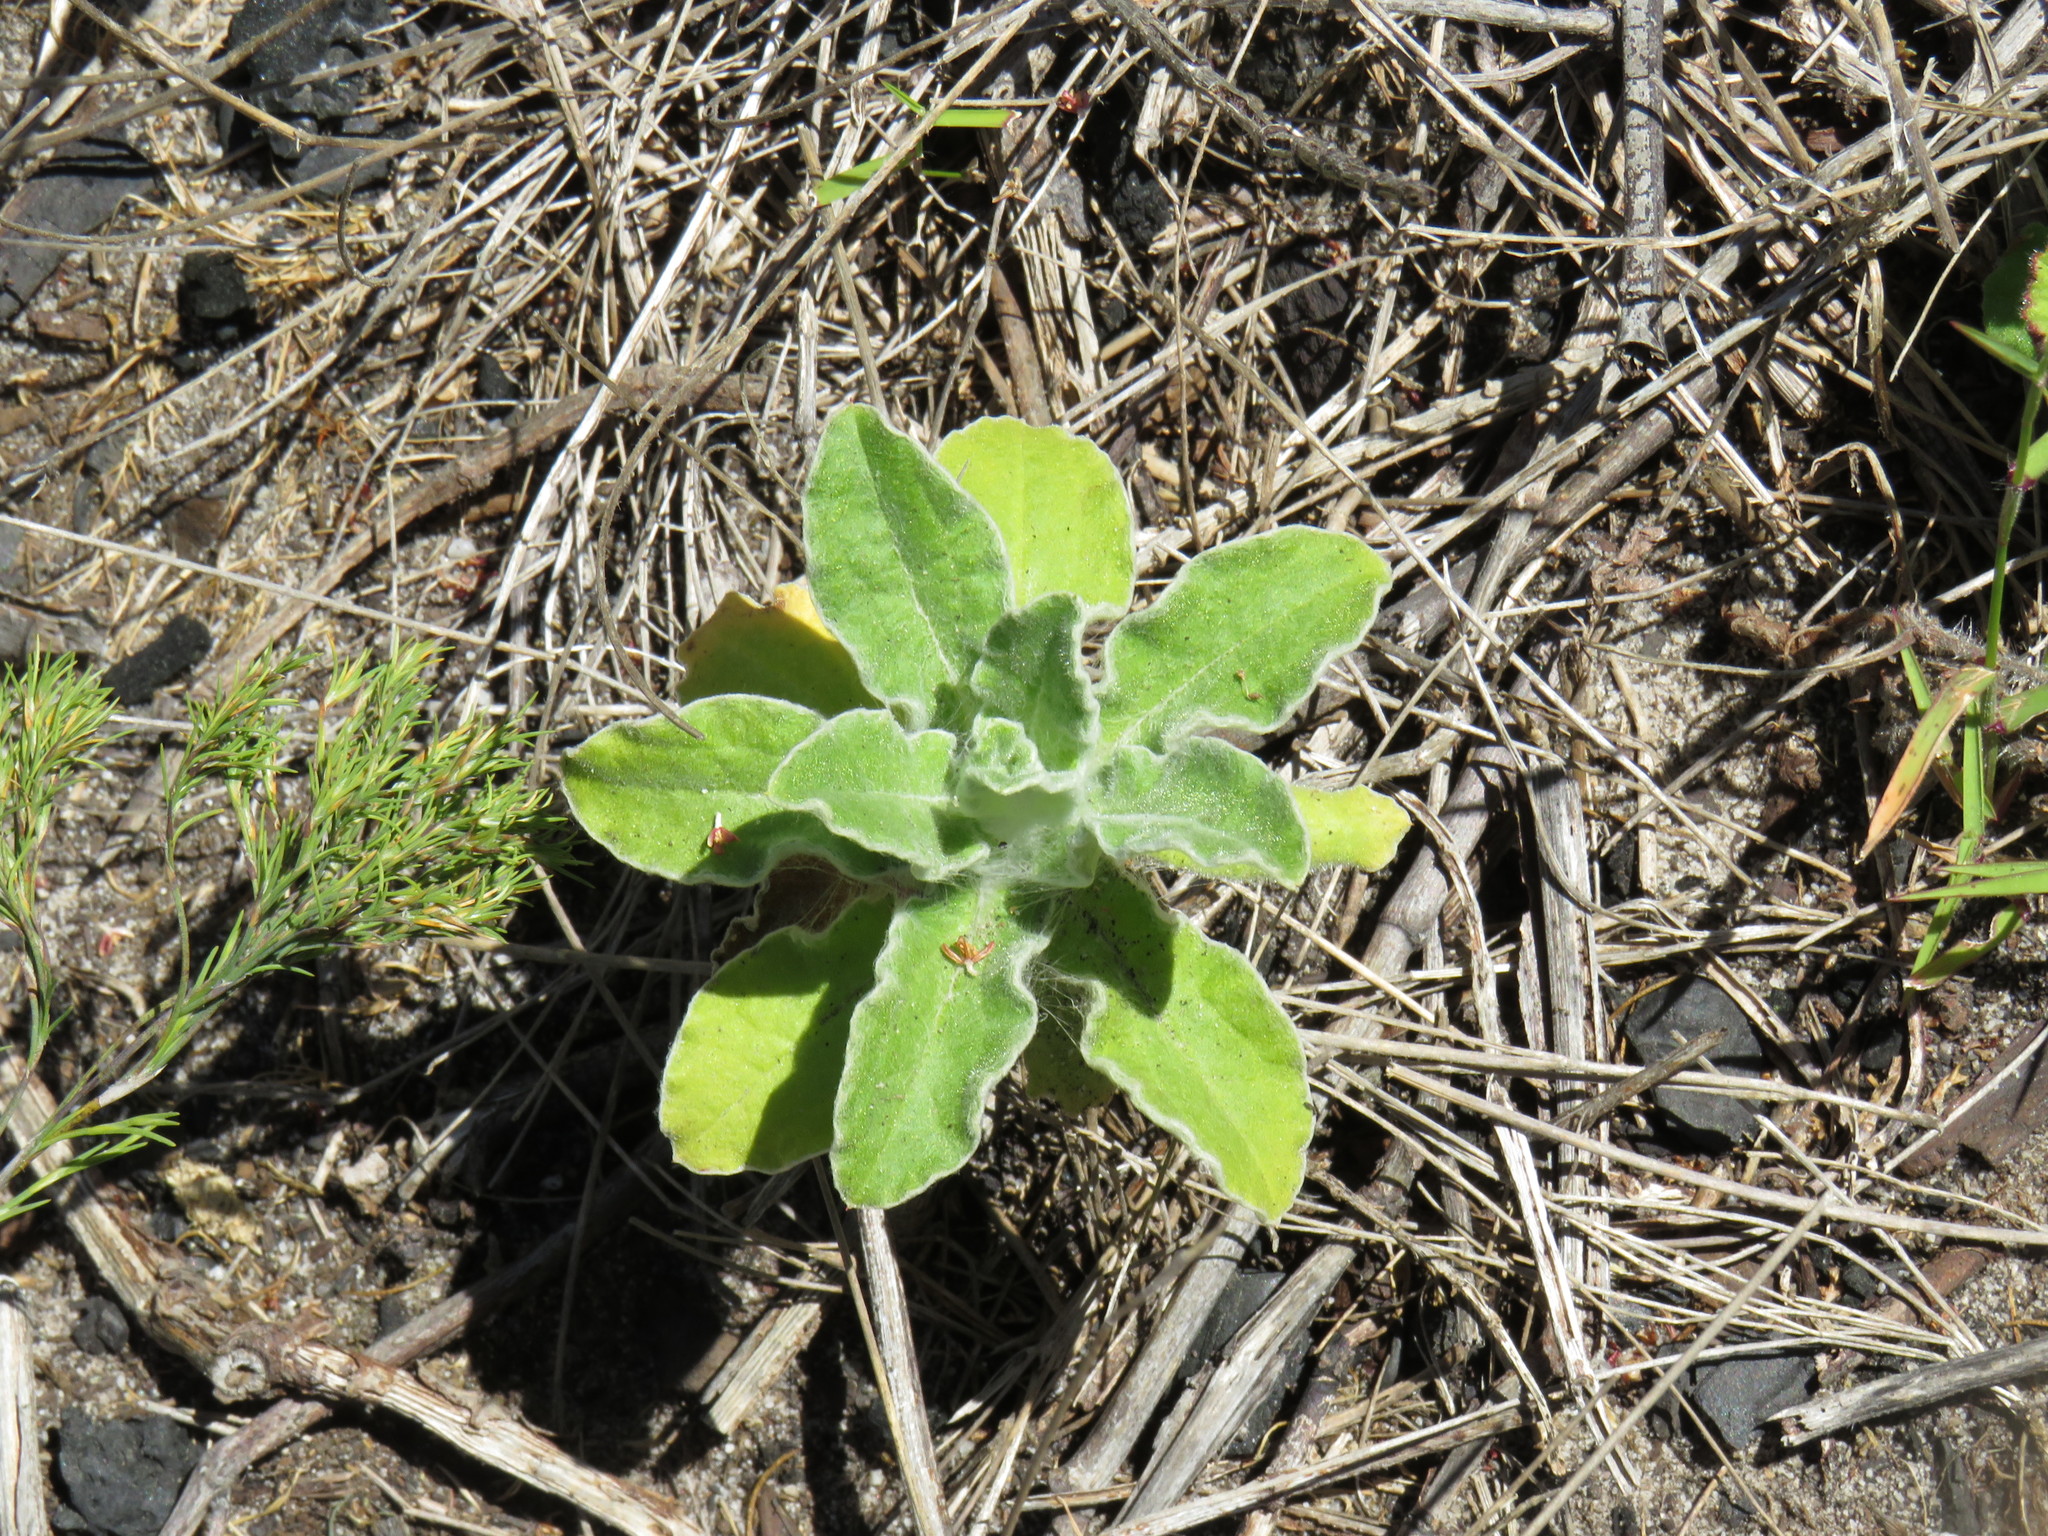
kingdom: Plantae
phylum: Tracheophyta
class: Magnoliopsida
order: Asterales
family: Asteraceae
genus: Helichrysum
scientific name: Helichrysum foetidum
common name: Stinking everlasting
